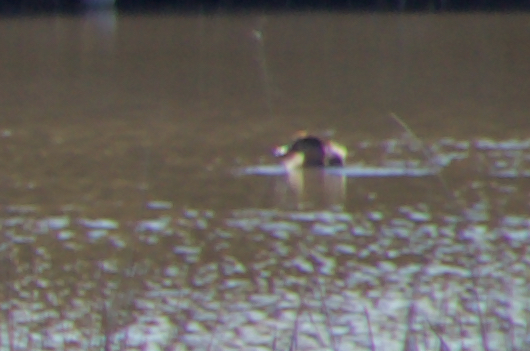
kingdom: Animalia
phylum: Chordata
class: Aves
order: Anseriformes
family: Anatidae
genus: Marmaronetta
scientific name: Marmaronetta angustirostris
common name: Marbled duck
